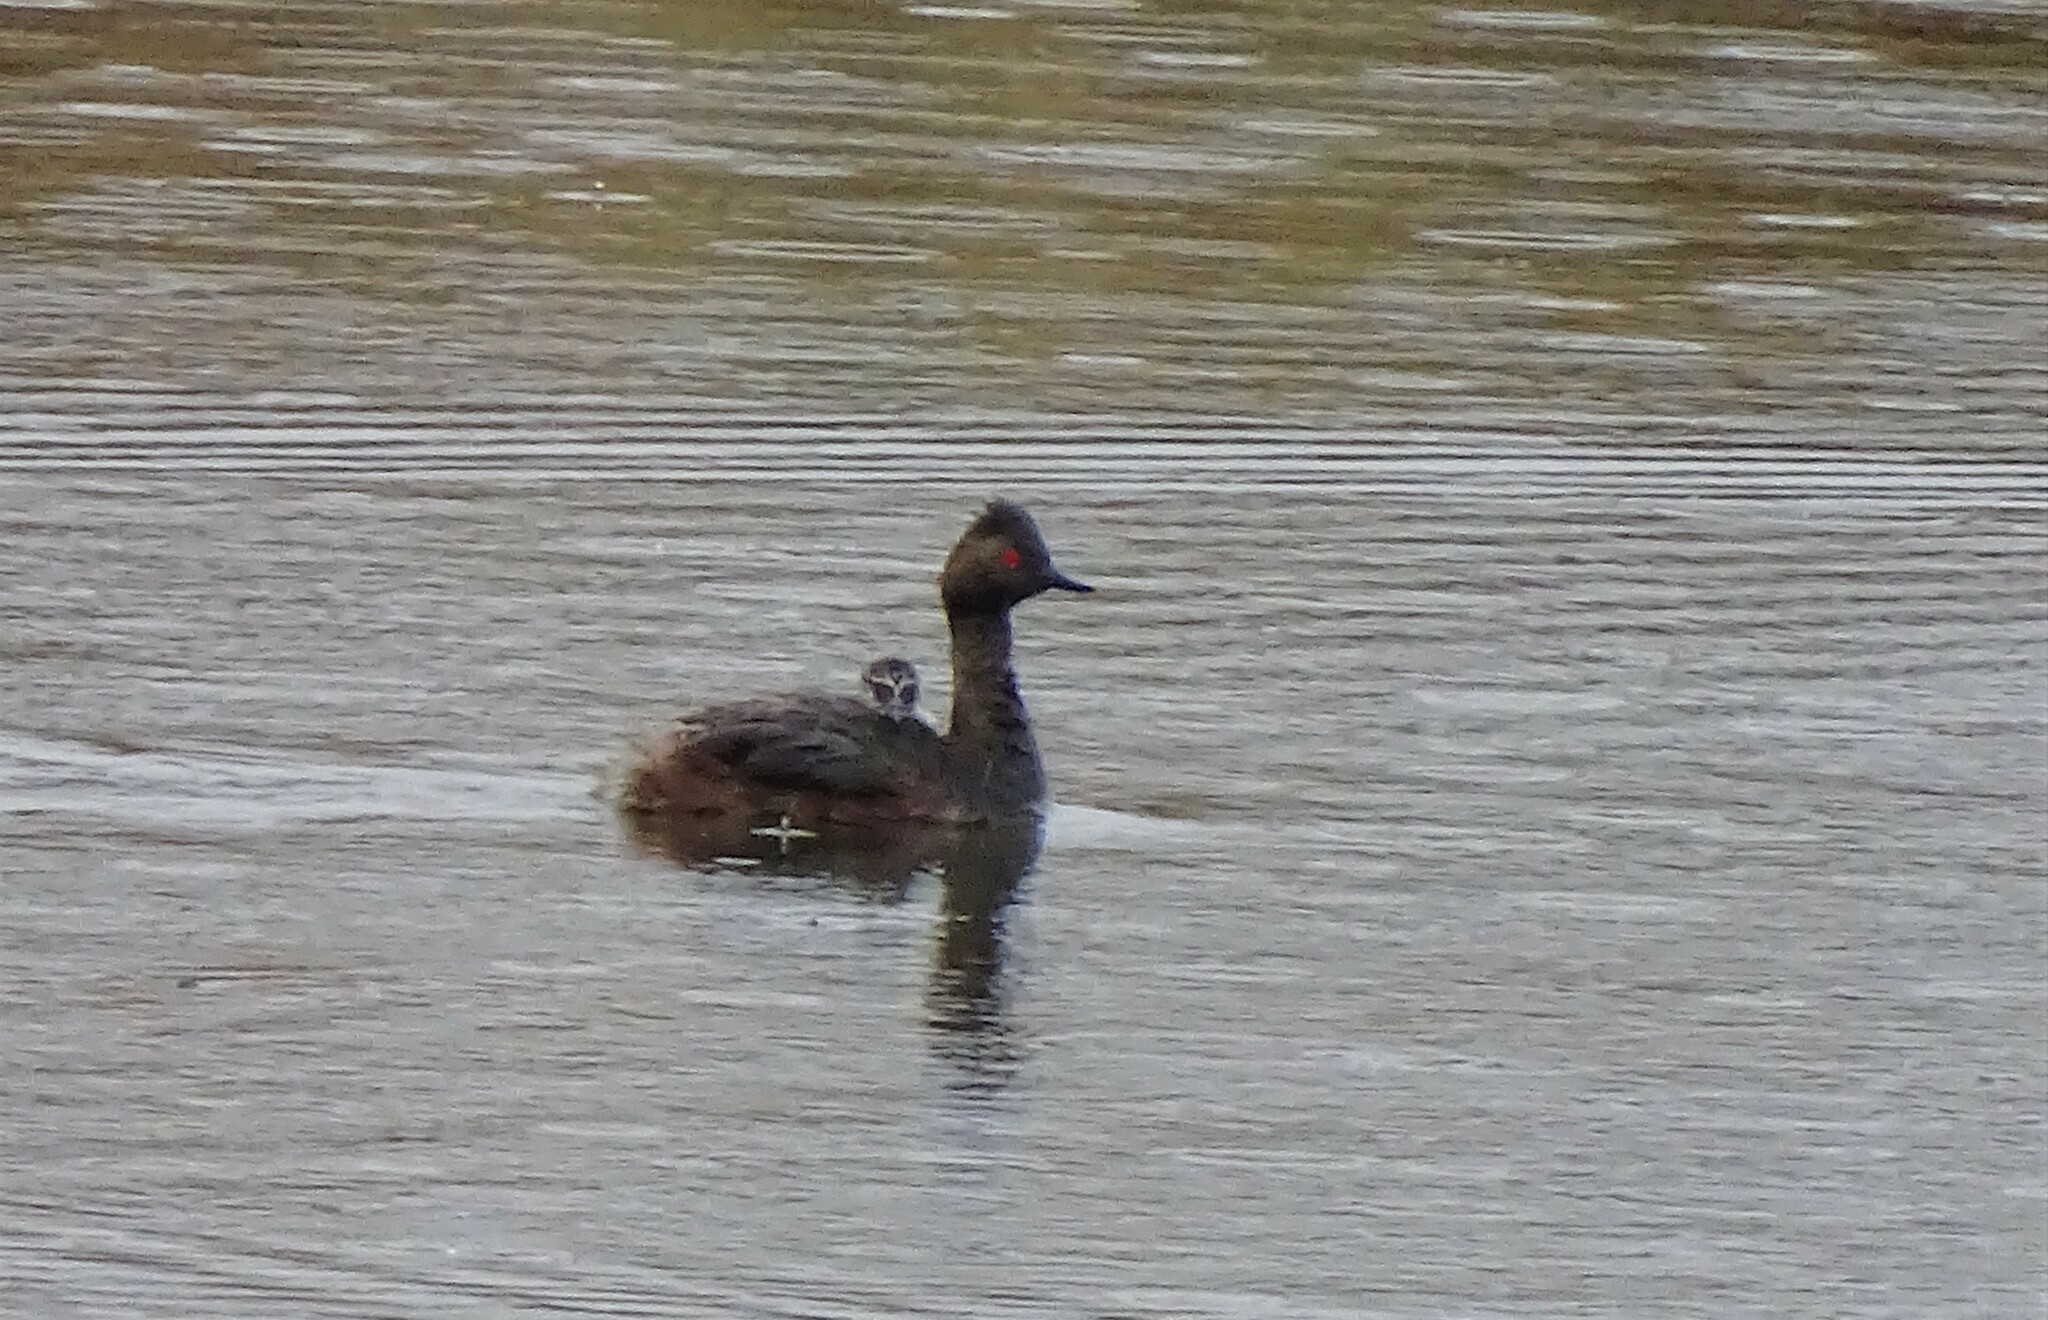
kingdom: Animalia
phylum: Chordata
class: Aves
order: Podicipediformes
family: Podicipedidae
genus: Podiceps
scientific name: Podiceps nigricollis
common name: Black-necked grebe
